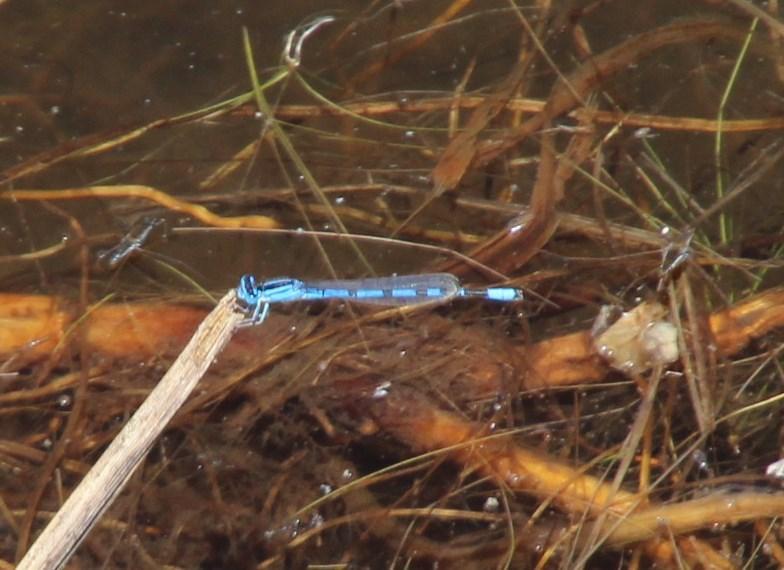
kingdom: Animalia
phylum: Arthropoda
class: Insecta
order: Odonata
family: Coenagrionidae
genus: Africallagma
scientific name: Africallagma sapphirinum
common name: Sapphire bluet
